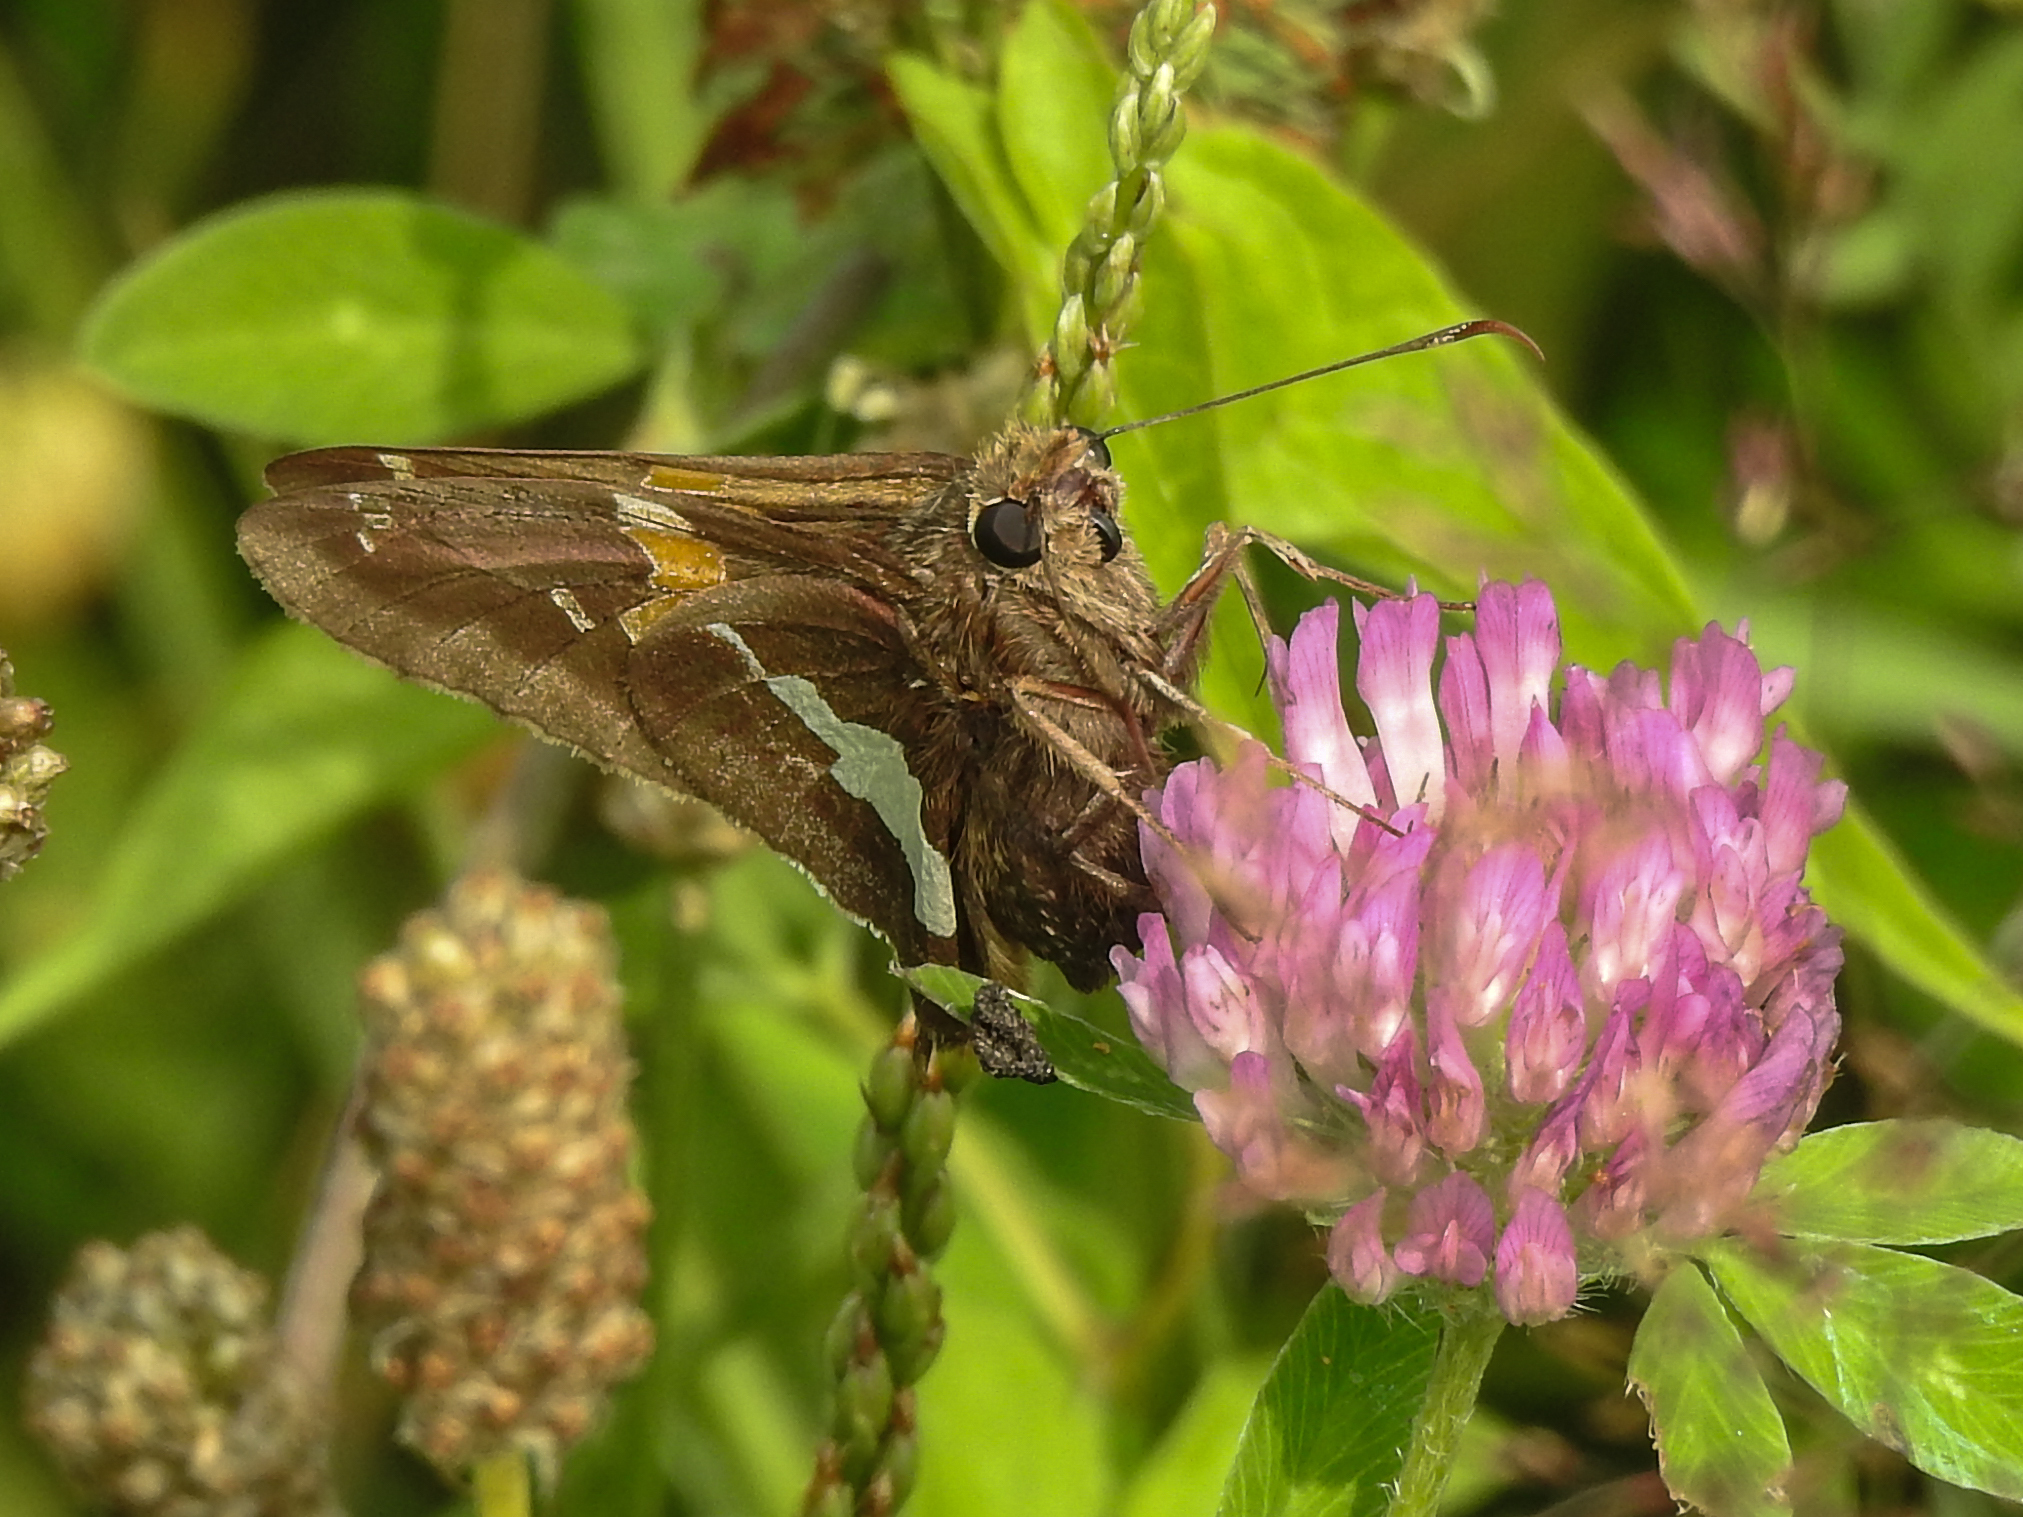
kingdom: Animalia
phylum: Arthropoda
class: Insecta
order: Lepidoptera
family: Hesperiidae
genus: Epargyreus
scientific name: Epargyreus clarus
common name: Silver-spotted skipper
